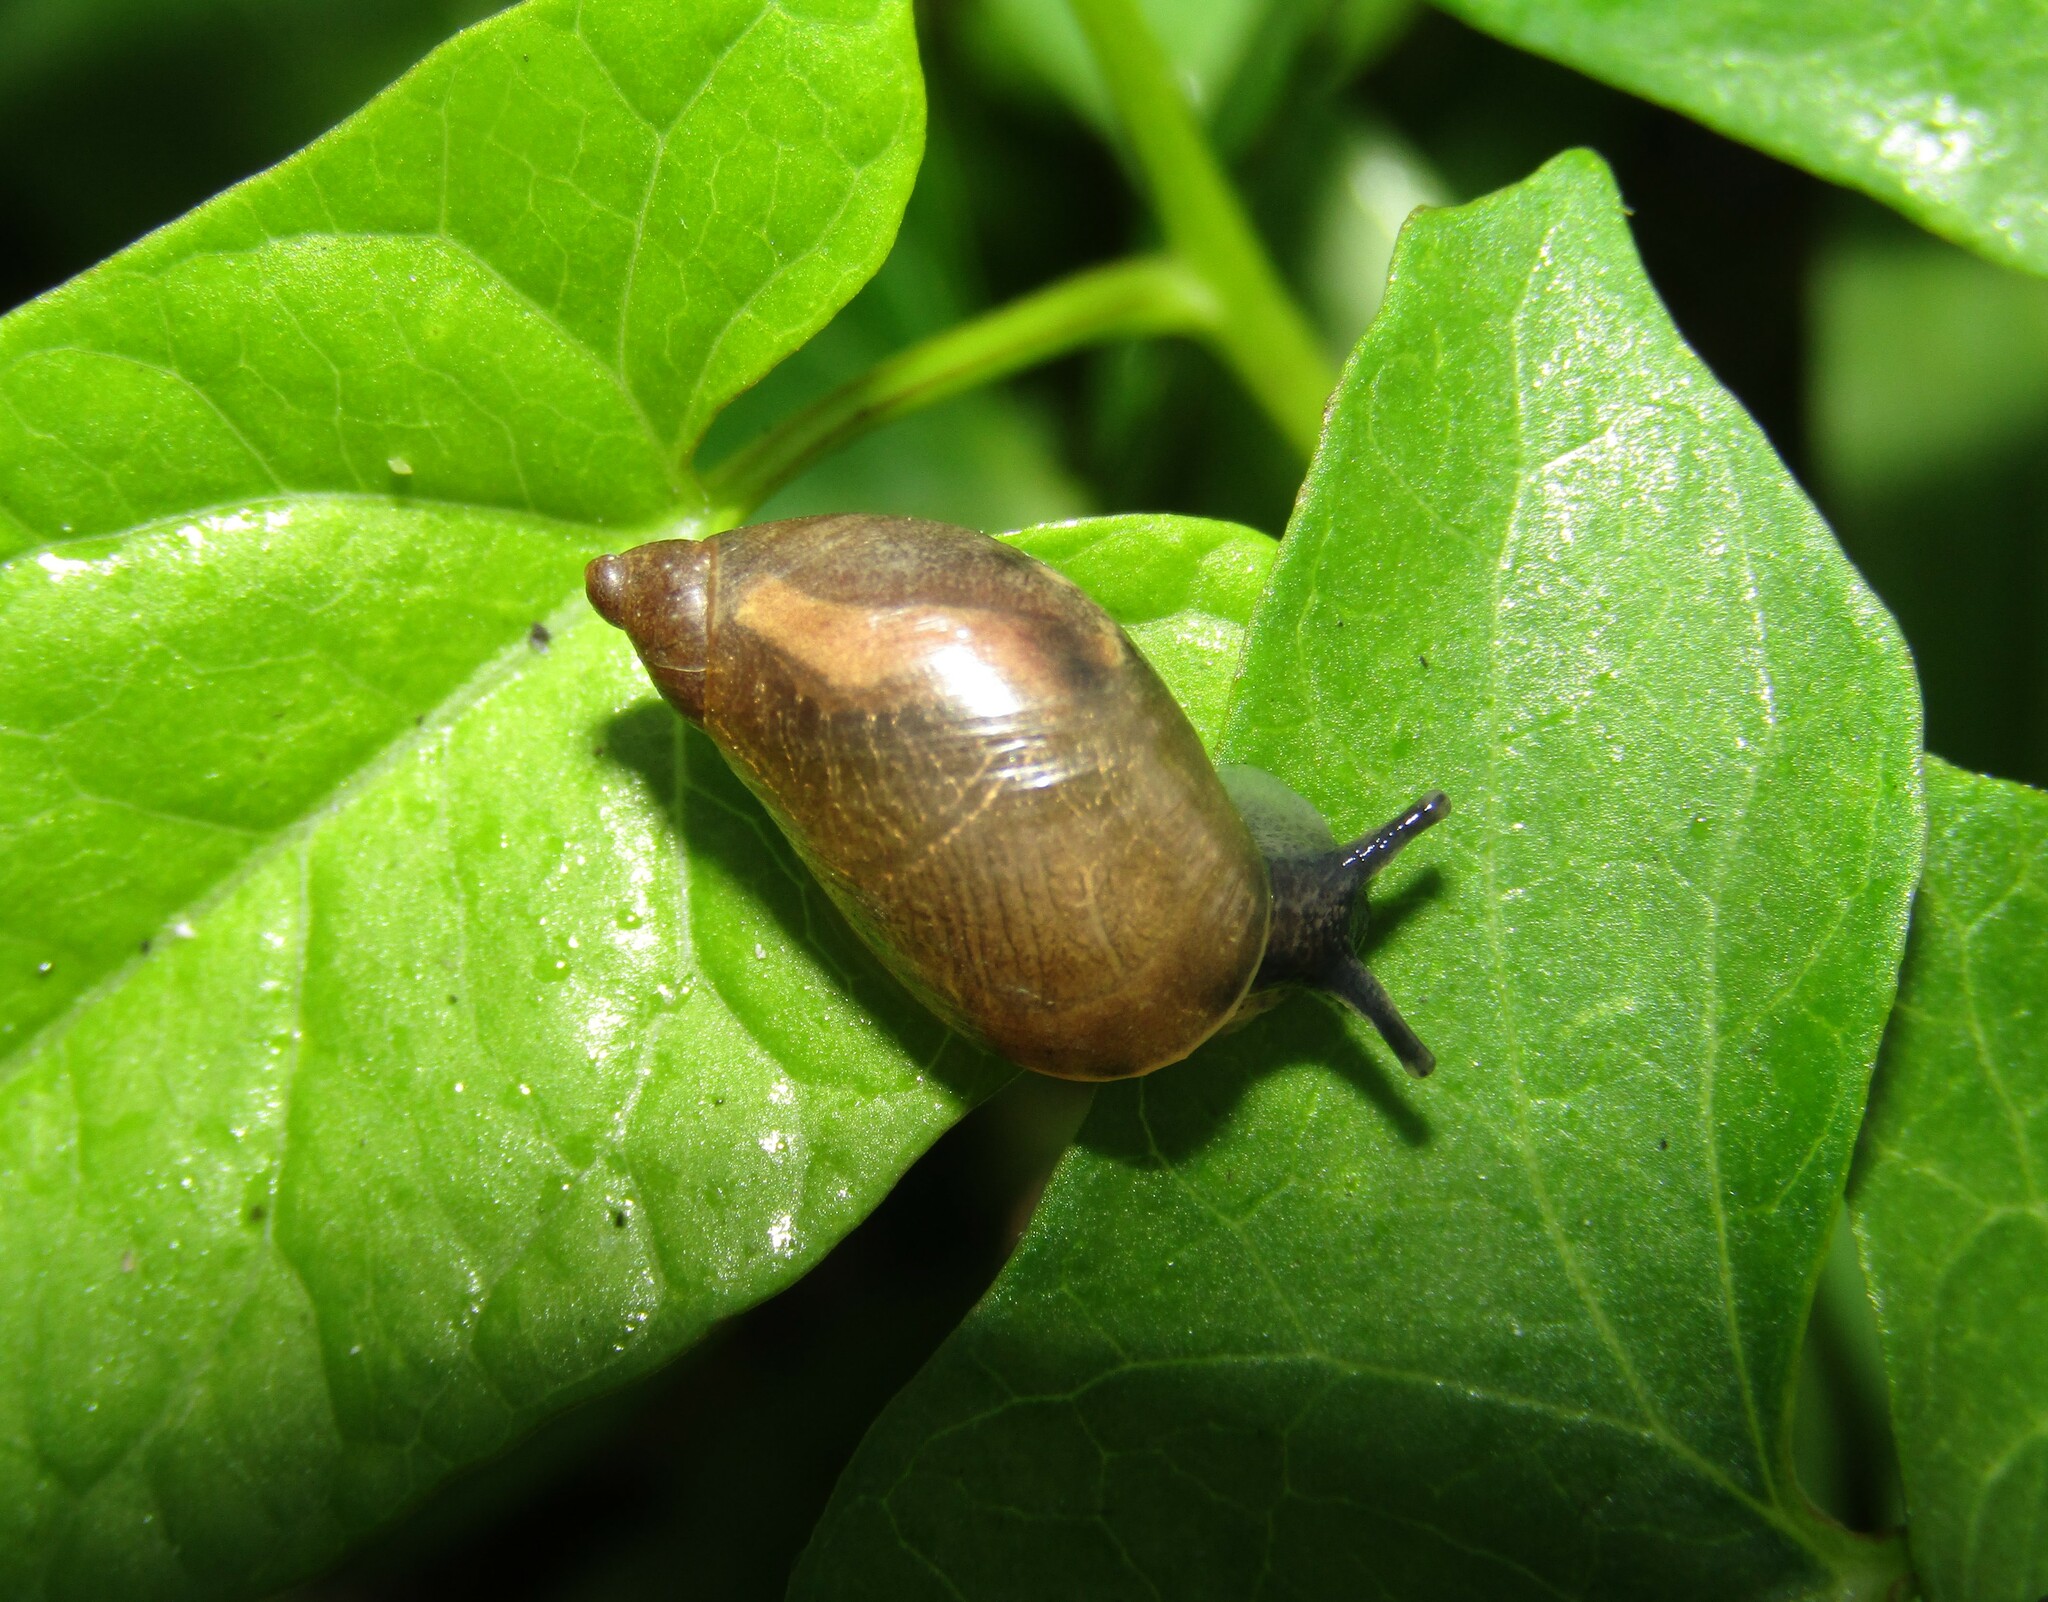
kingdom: Animalia
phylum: Mollusca
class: Gastropoda
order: Stylommatophora
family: Succineidae
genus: Succinea
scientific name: Succinea putris
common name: European ambersnail
